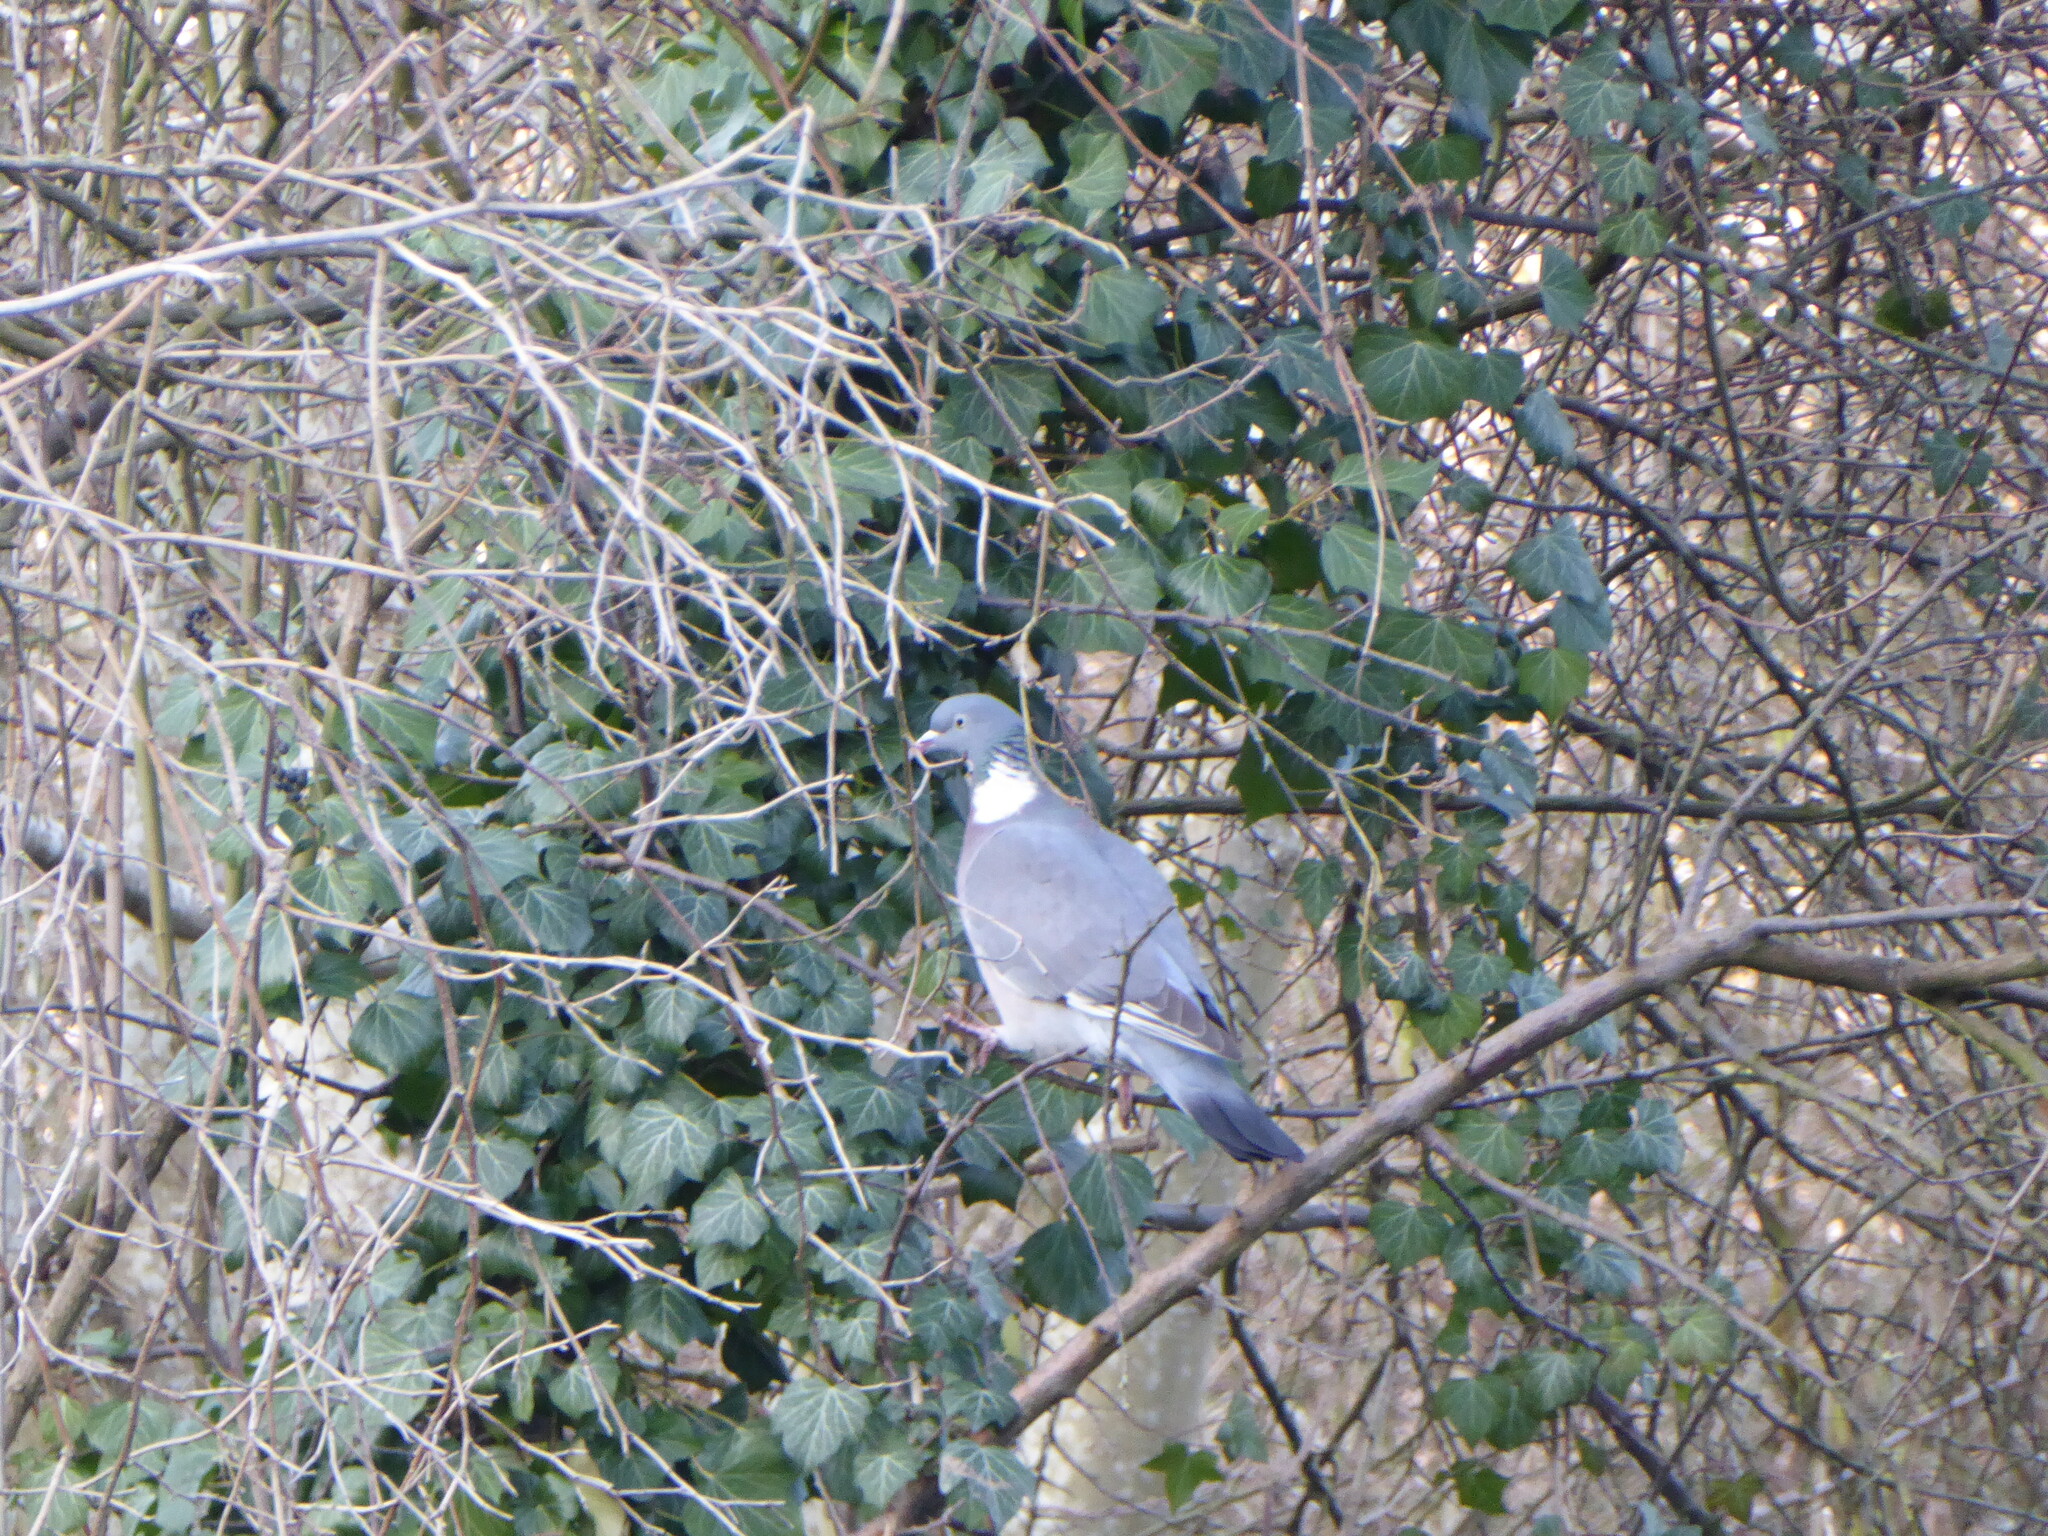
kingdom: Animalia
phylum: Chordata
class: Aves
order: Columbiformes
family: Columbidae
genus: Columba
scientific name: Columba palumbus
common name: Common wood pigeon
